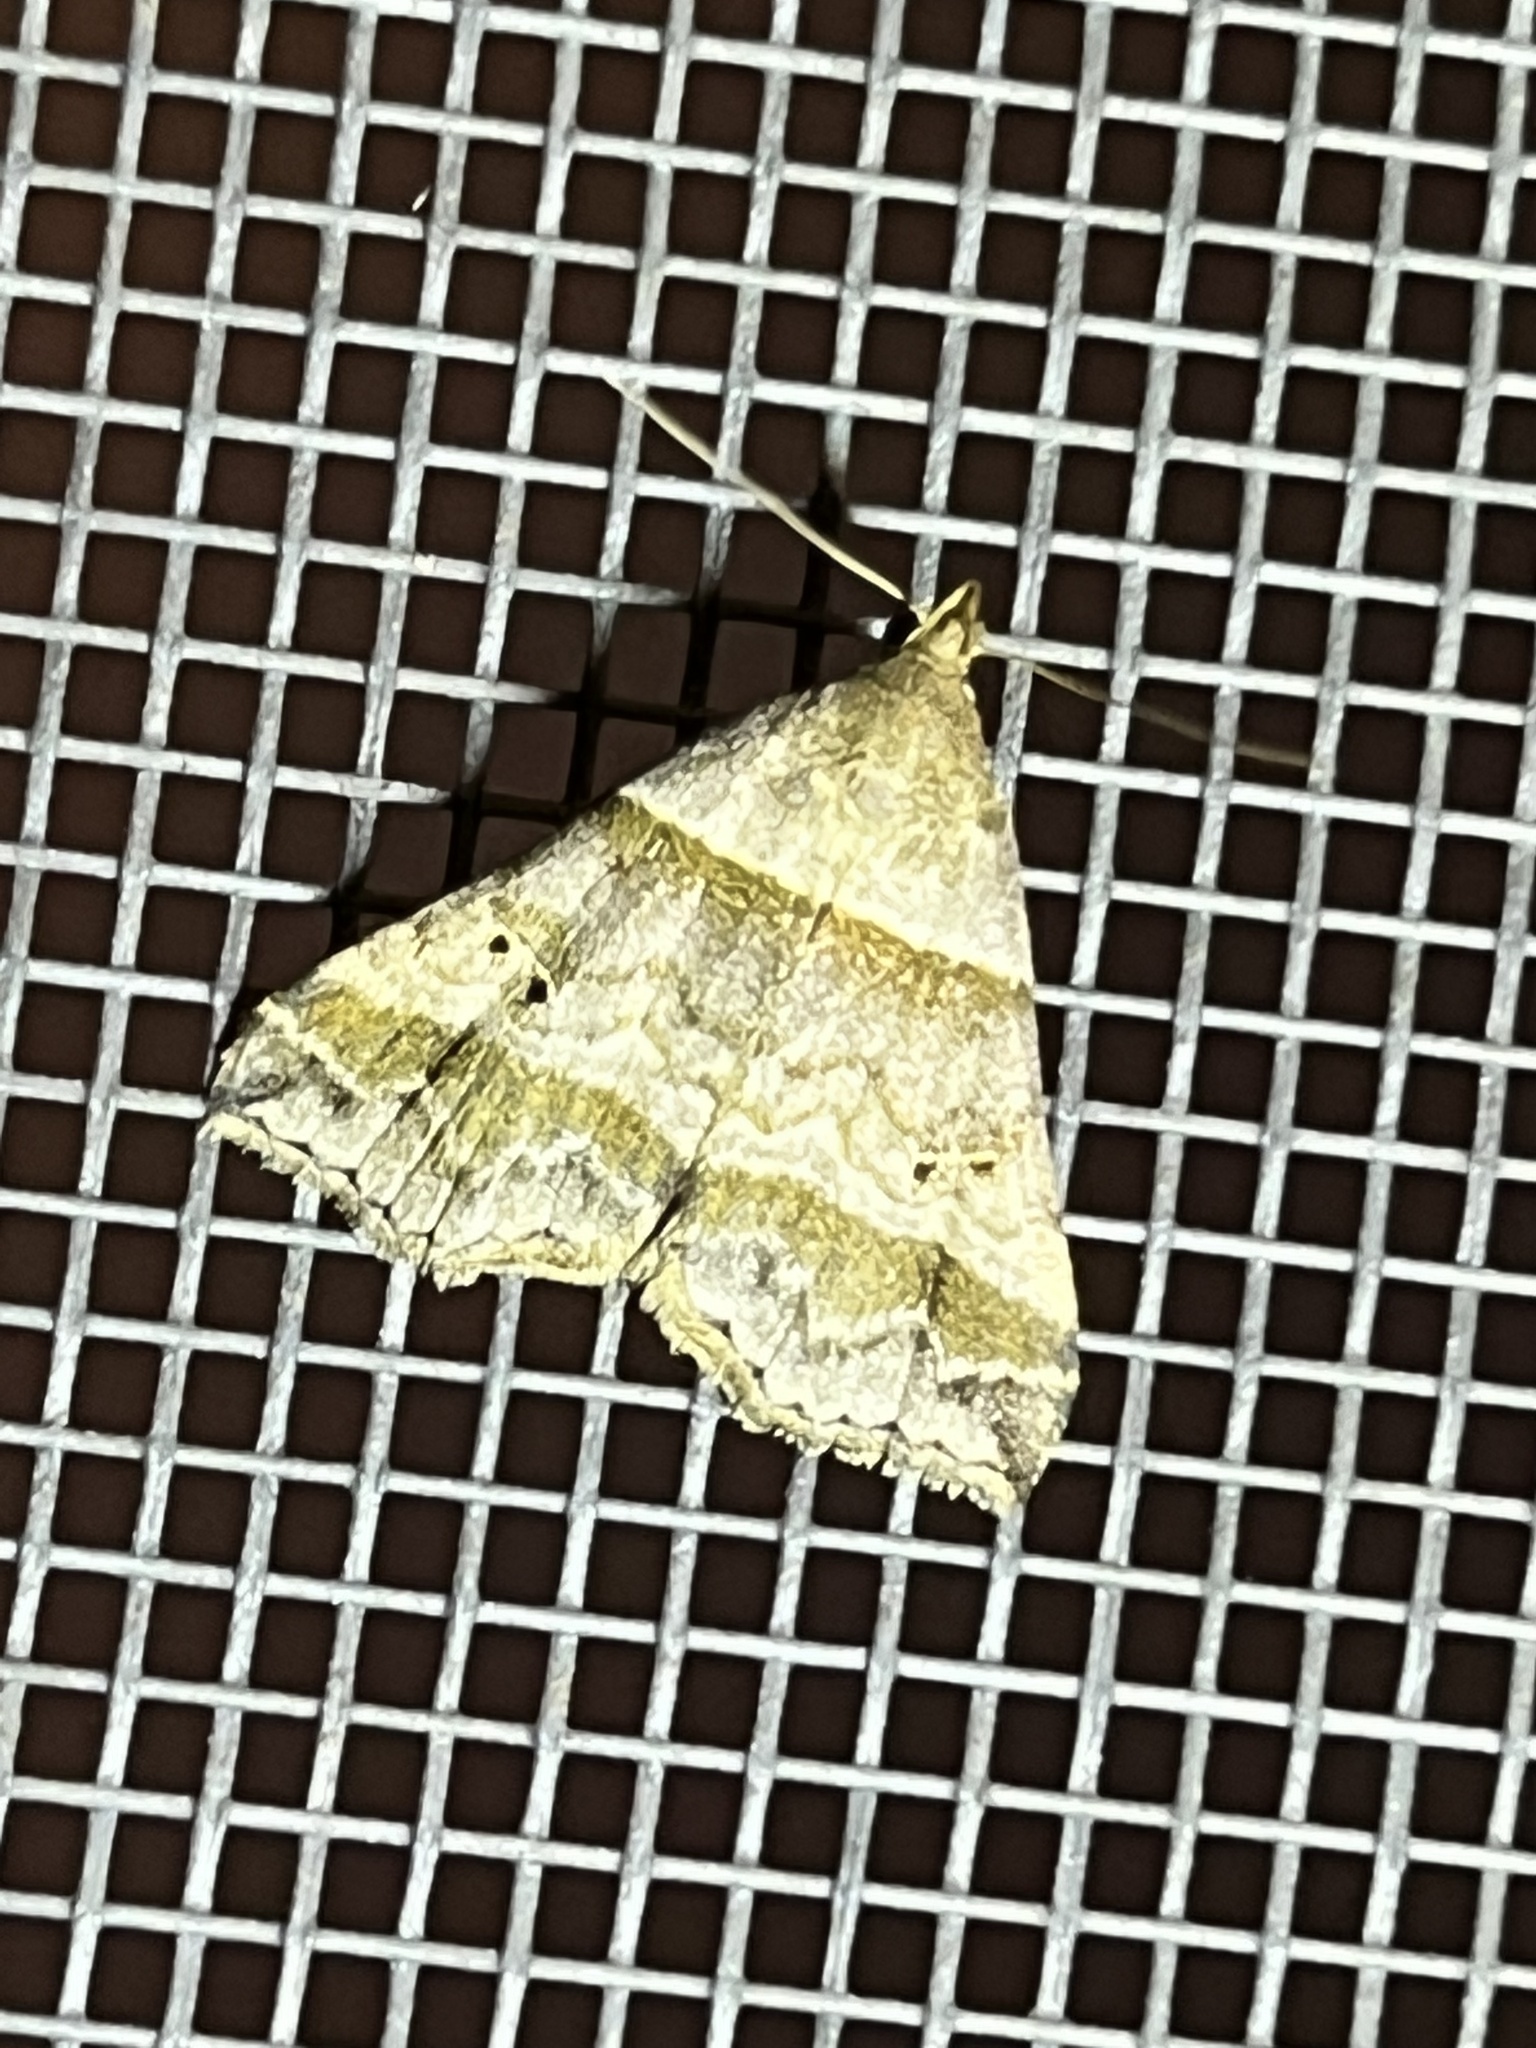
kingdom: Animalia
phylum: Arthropoda
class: Insecta
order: Lepidoptera
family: Erebidae
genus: Phaeolita
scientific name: Phaeolita pyramusalis
